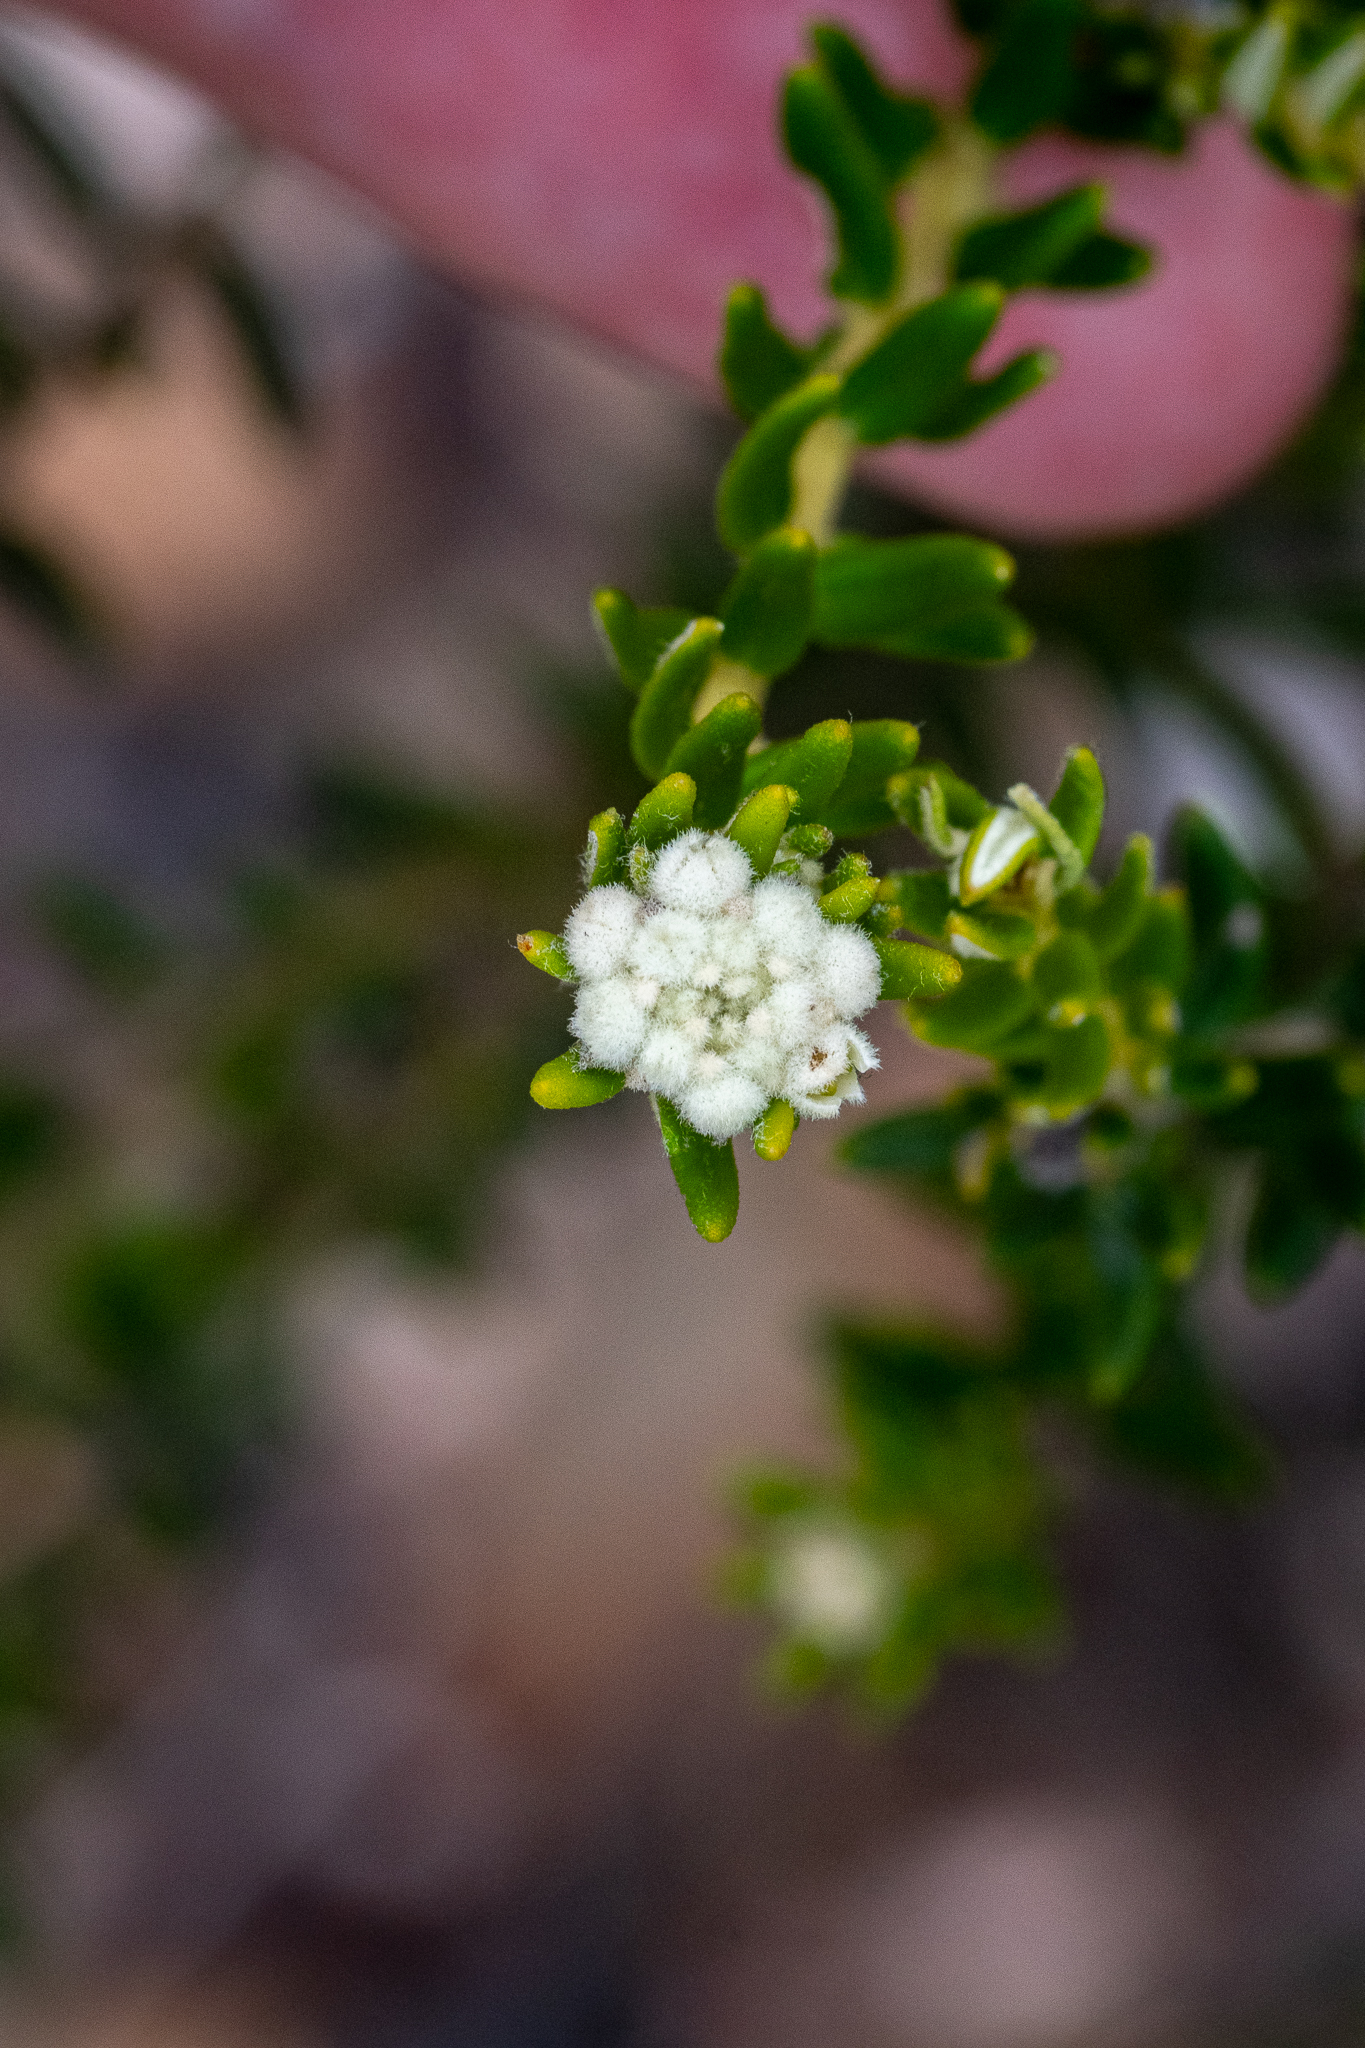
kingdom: Plantae
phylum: Tracheophyta
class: Magnoliopsida
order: Rosales
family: Rhamnaceae
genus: Phylica
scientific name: Phylica lasiocarpa
